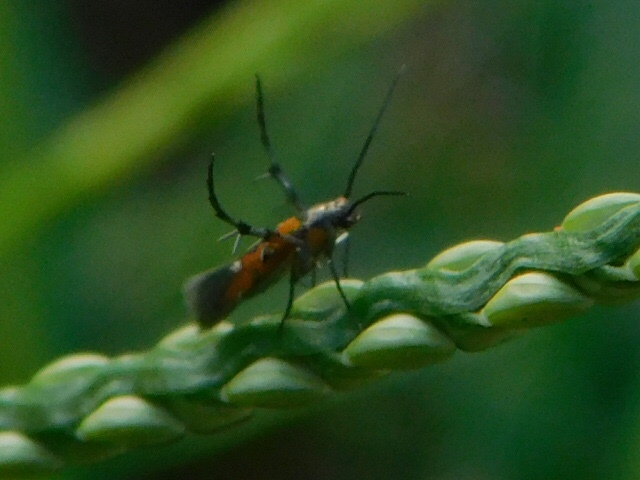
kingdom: Animalia
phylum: Arthropoda
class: Insecta
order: Lepidoptera
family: Heliodinidae
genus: Heliodines
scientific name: Heliodines
